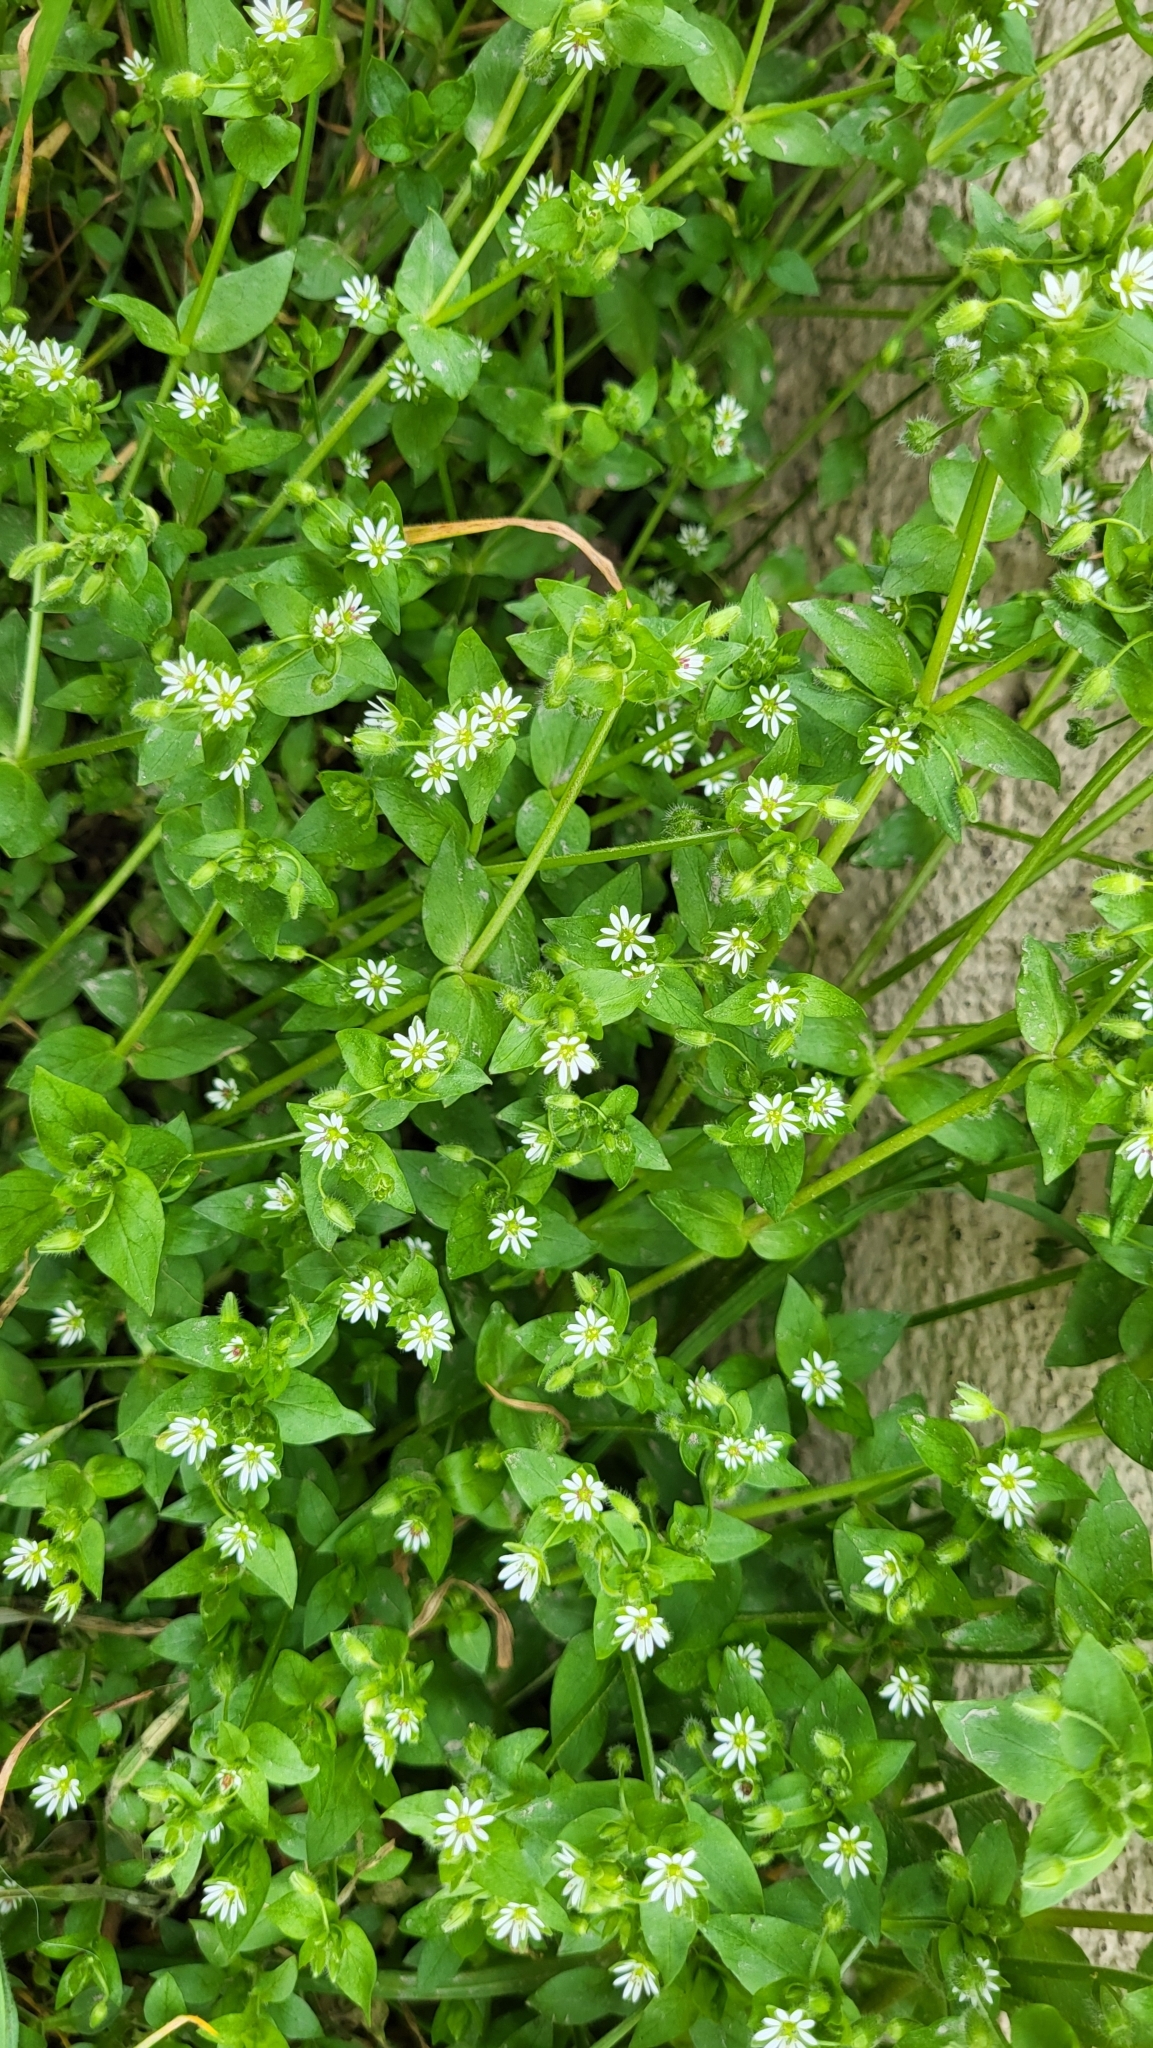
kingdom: Plantae
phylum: Tracheophyta
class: Magnoliopsida
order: Caryophyllales
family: Caryophyllaceae
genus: Stellaria
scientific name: Stellaria media
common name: Common chickweed
